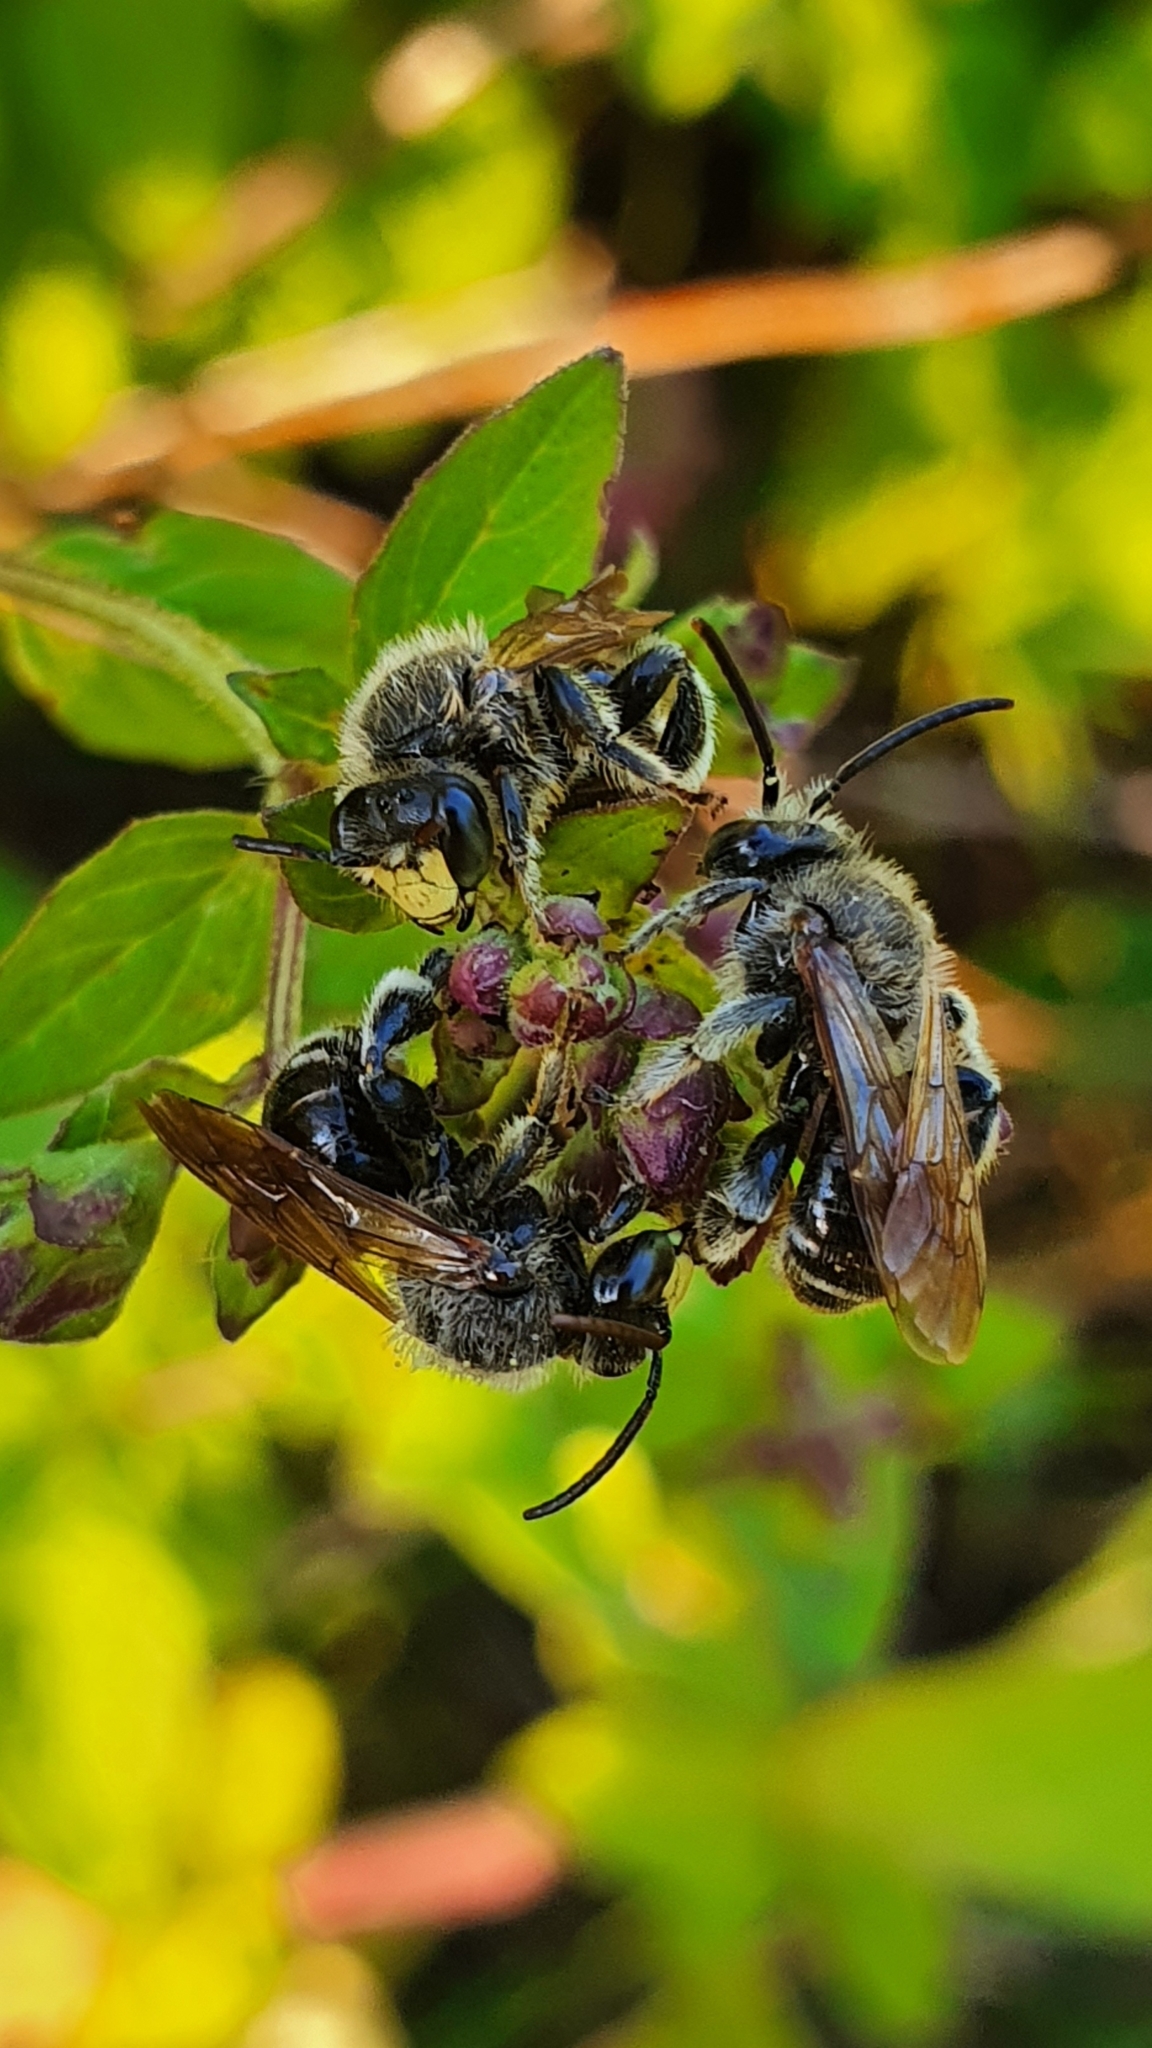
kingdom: Animalia
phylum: Arthropoda
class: Insecta
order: Hymenoptera
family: Melittidae
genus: Macropis
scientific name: Macropis fulvipes
